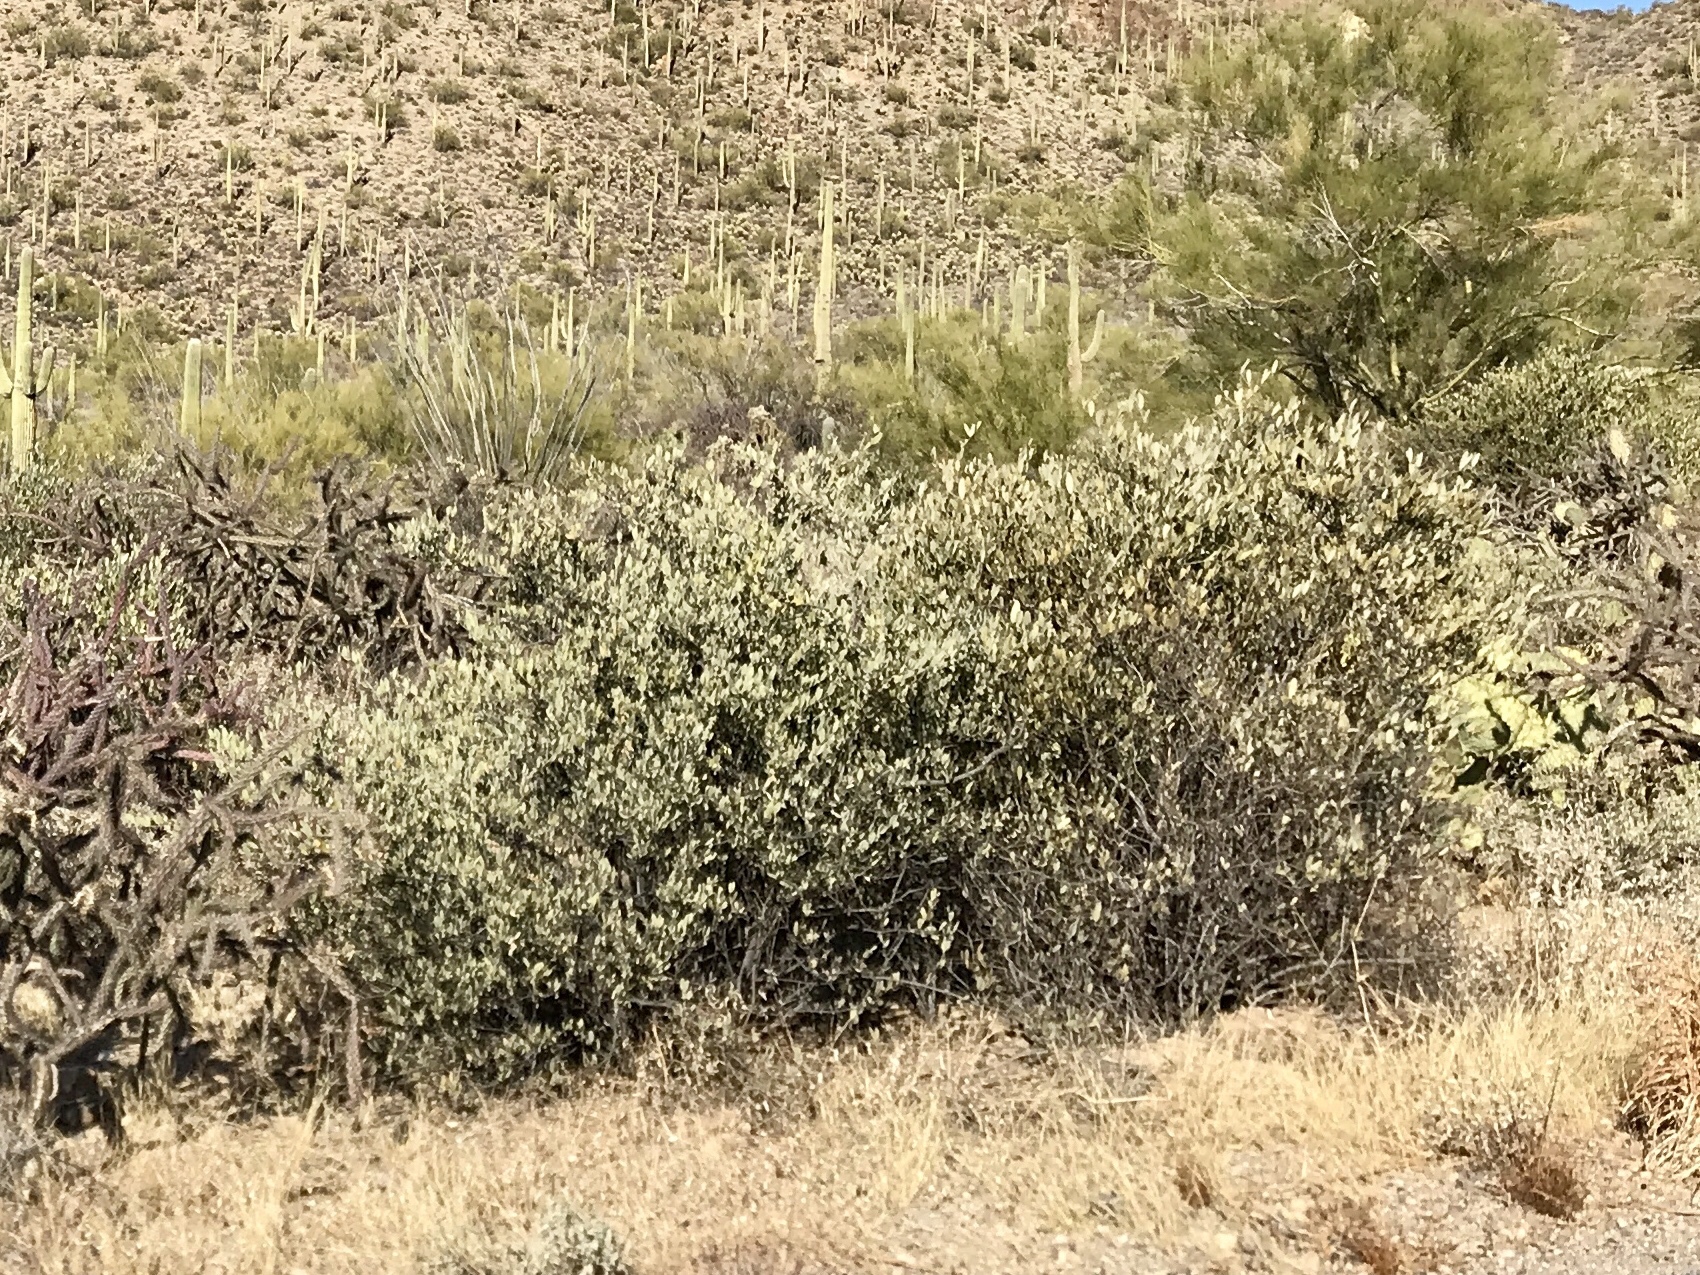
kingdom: Plantae
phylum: Tracheophyta
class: Magnoliopsida
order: Caryophyllales
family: Simmondsiaceae
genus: Simmondsia
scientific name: Simmondsia chinensis
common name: Jojoba
